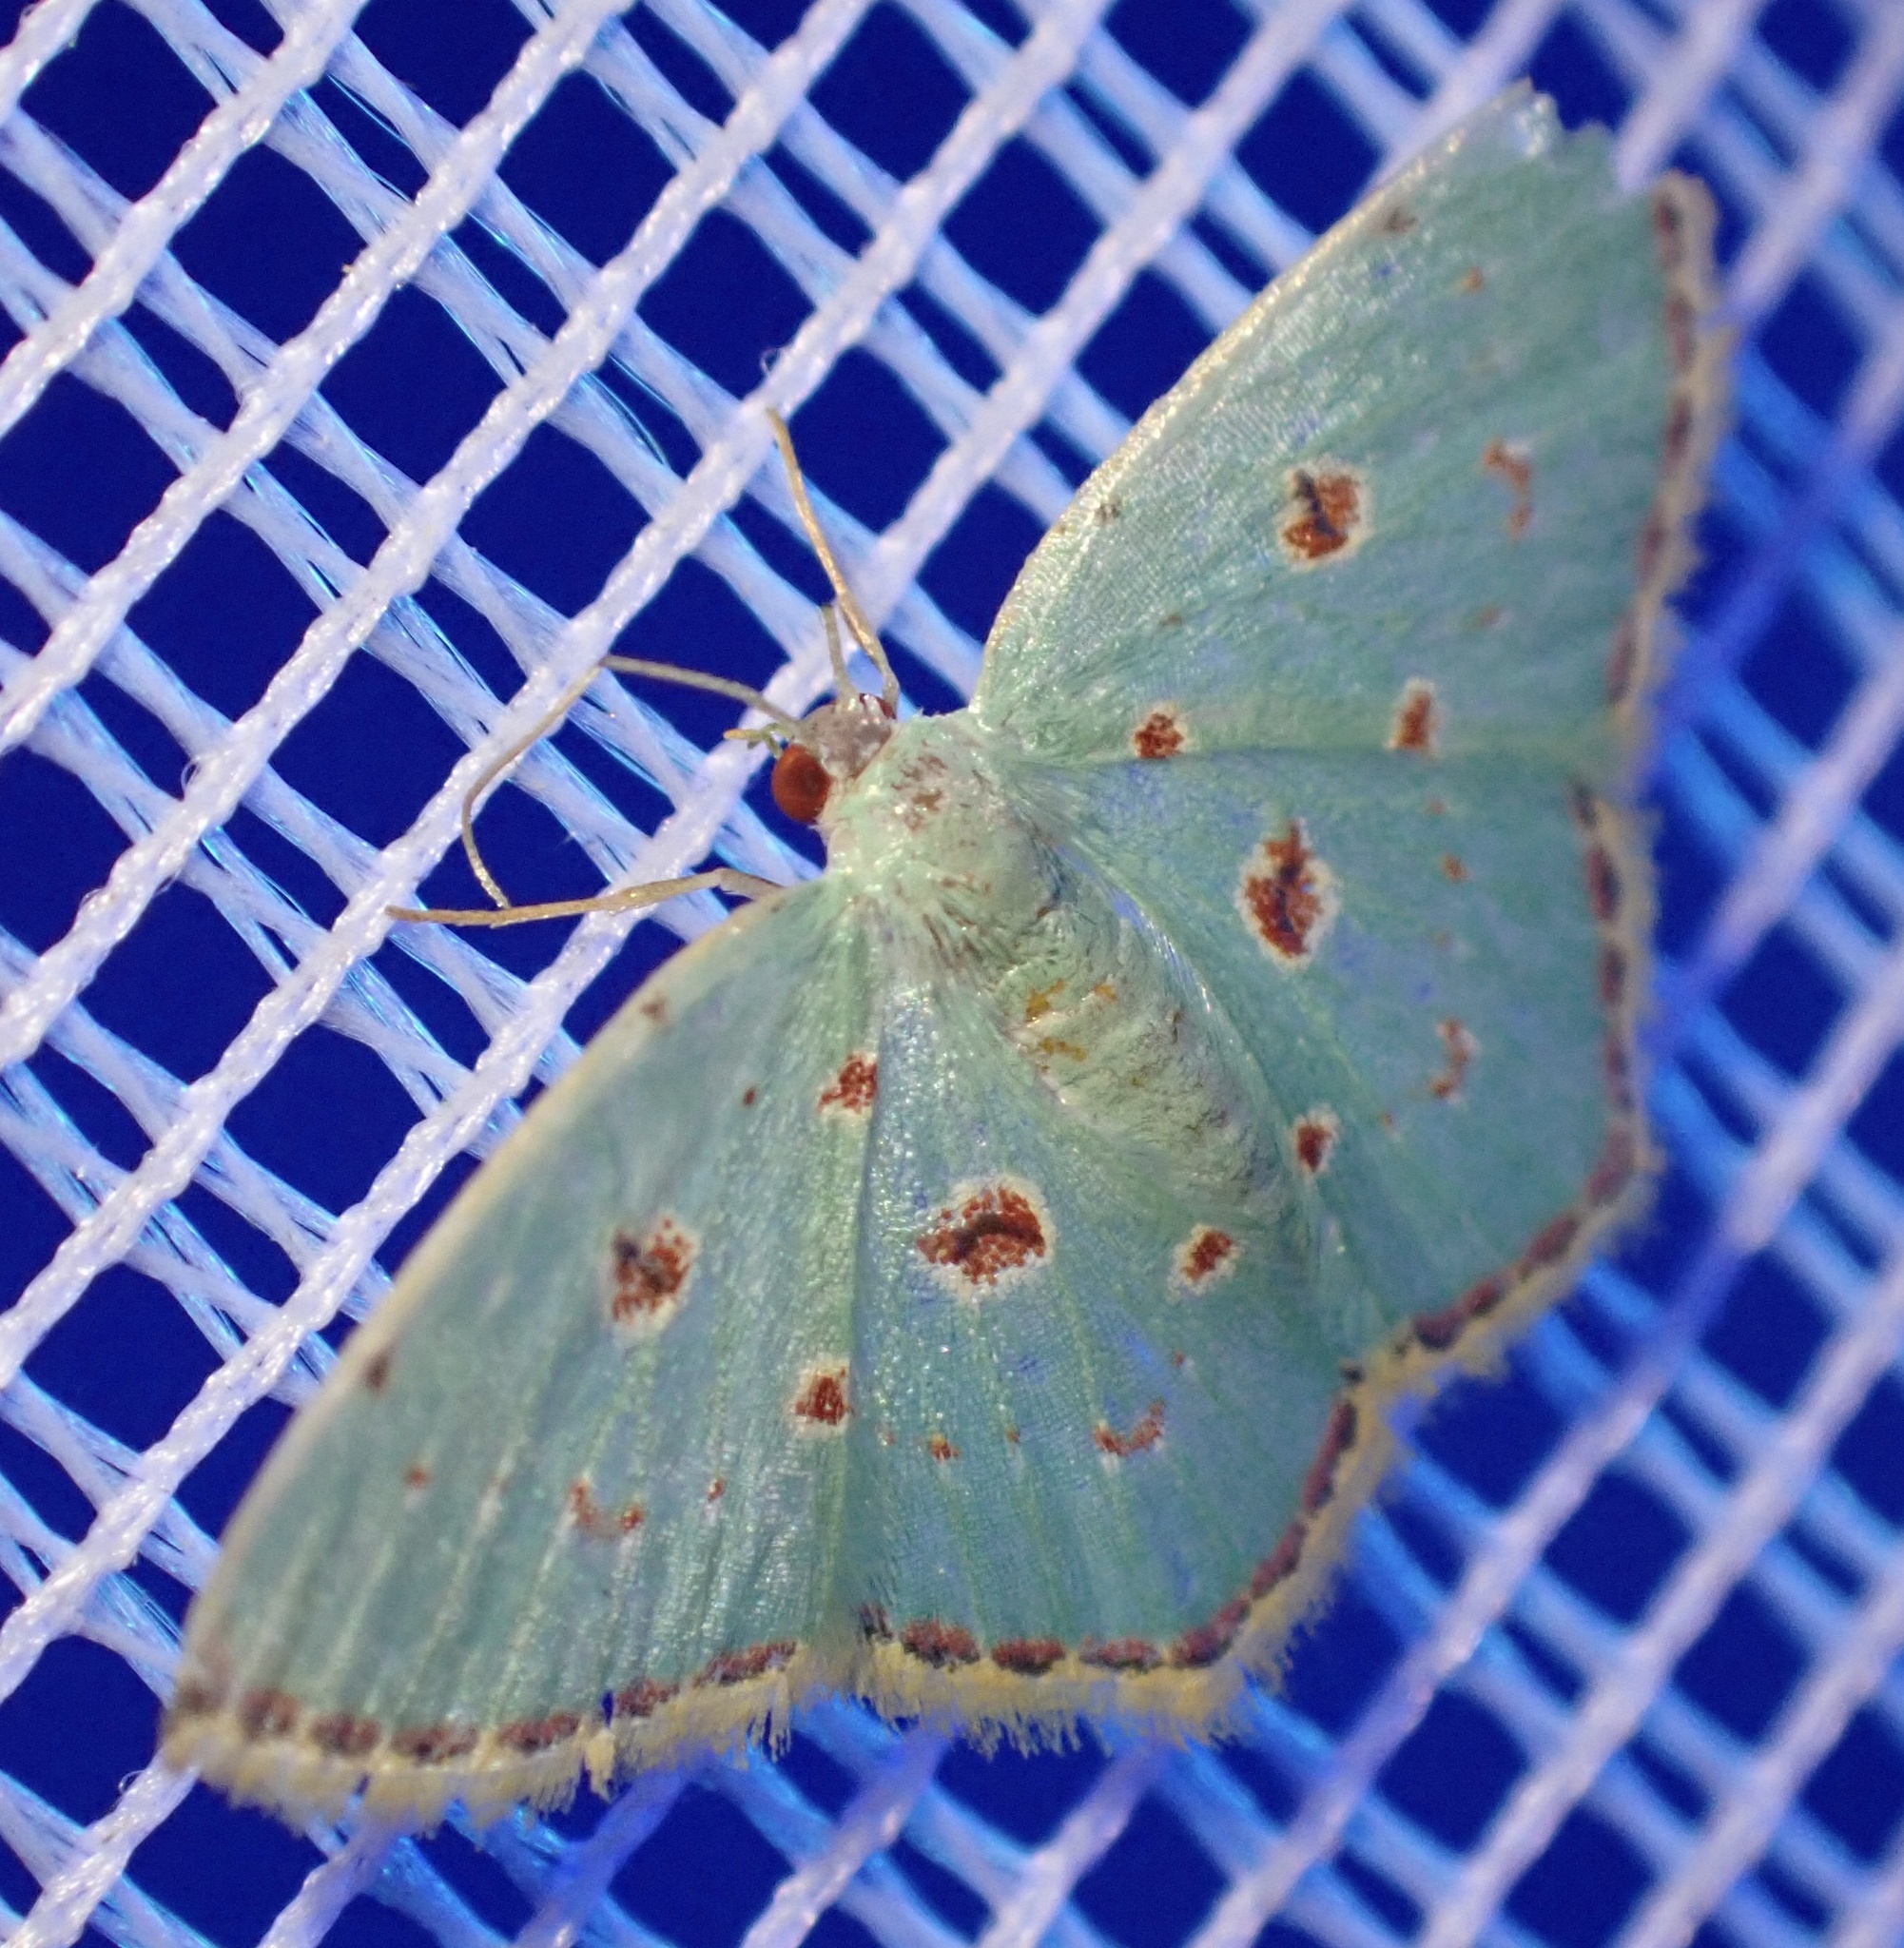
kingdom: Animalia
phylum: Arthropoda
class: Insecta
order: Lepidoptera
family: Geometridae
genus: Comostola
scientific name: Comostola laesaria
